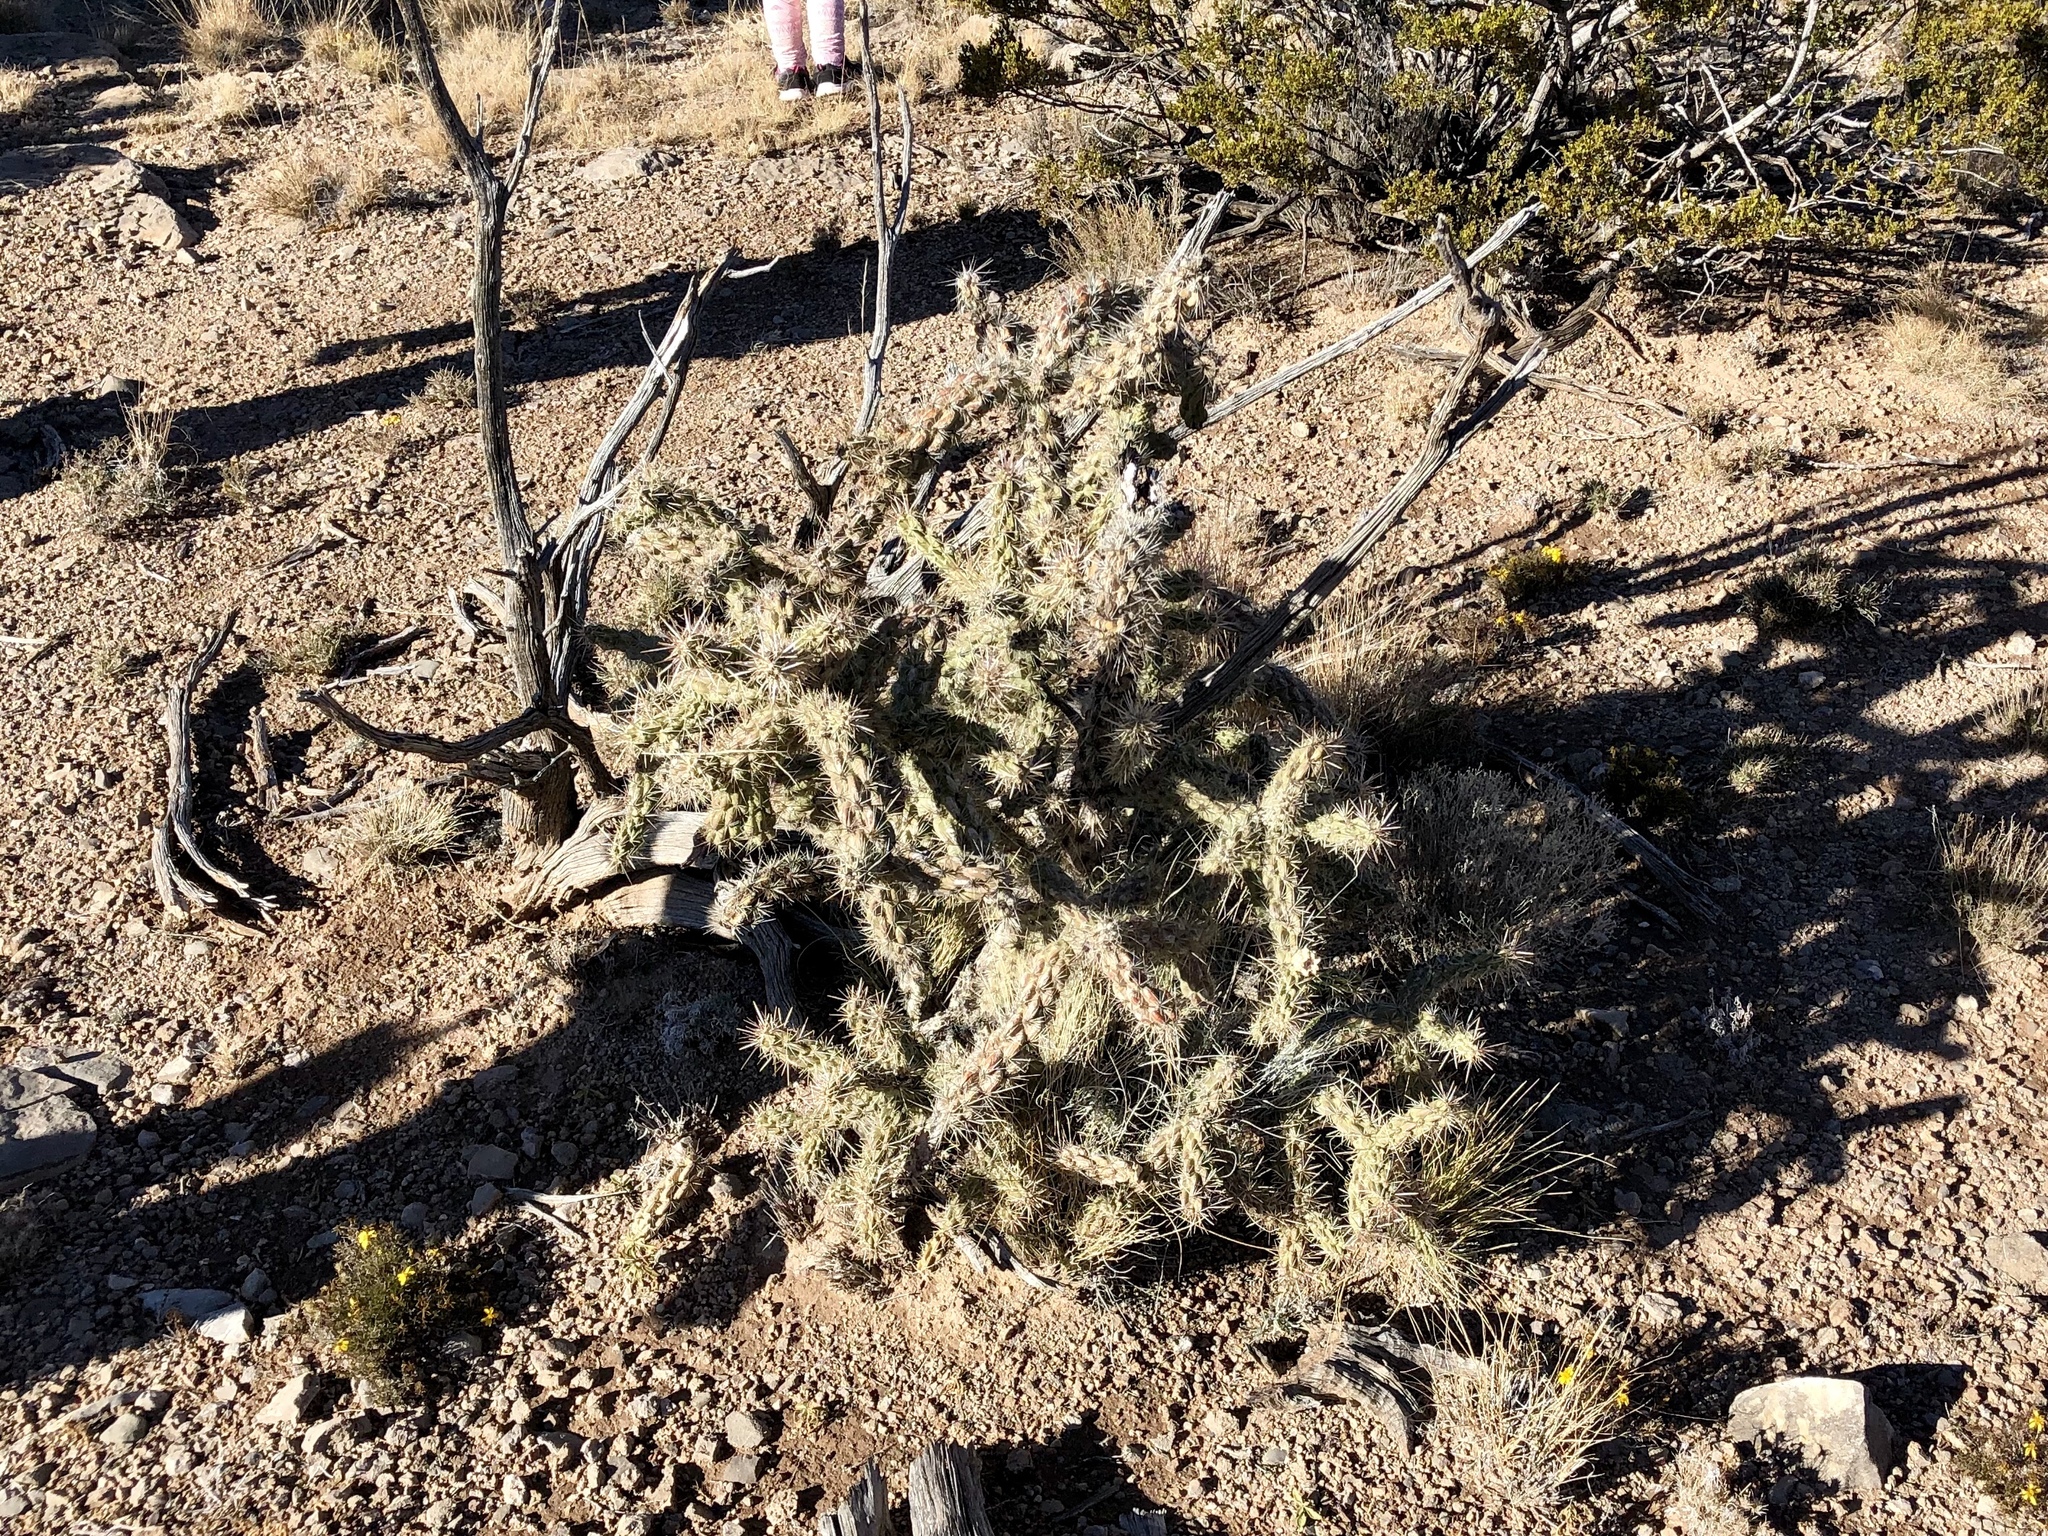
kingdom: Plantae
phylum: Tracheophyta
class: Magnoliopsida
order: Caryophyllales
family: Cactaceae
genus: Cylindropuntia
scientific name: Cylindropuntia imbricata
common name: Candelabrum cactus
